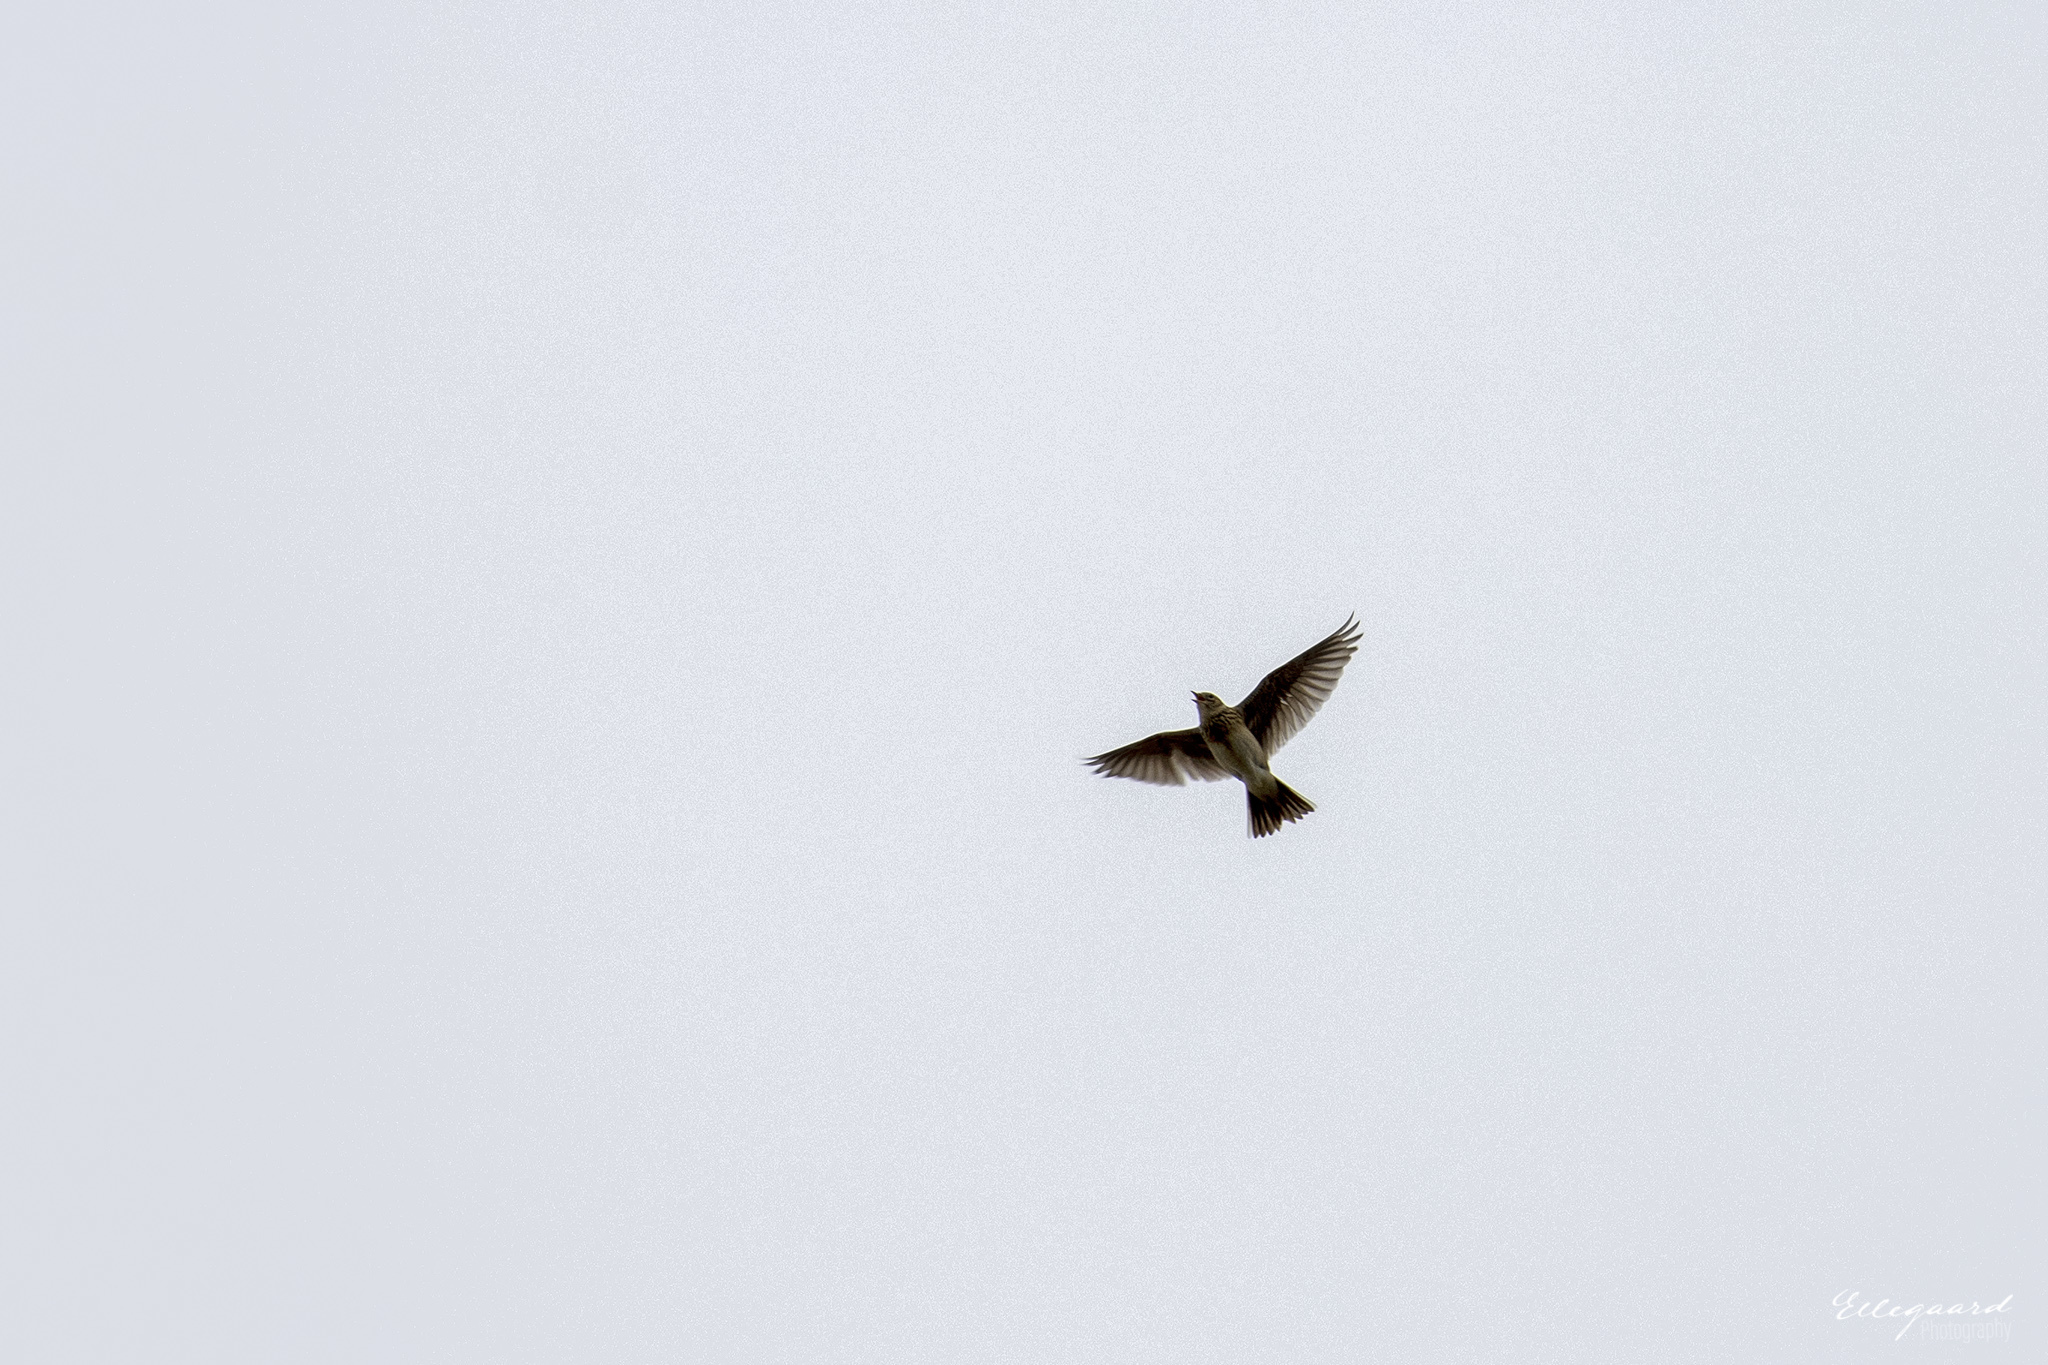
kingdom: Animalia
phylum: Chordata
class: Aves
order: Passeriformes
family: Alaudidae
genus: Alauda
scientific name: Alauda arvensis
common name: Eurasian skylark
